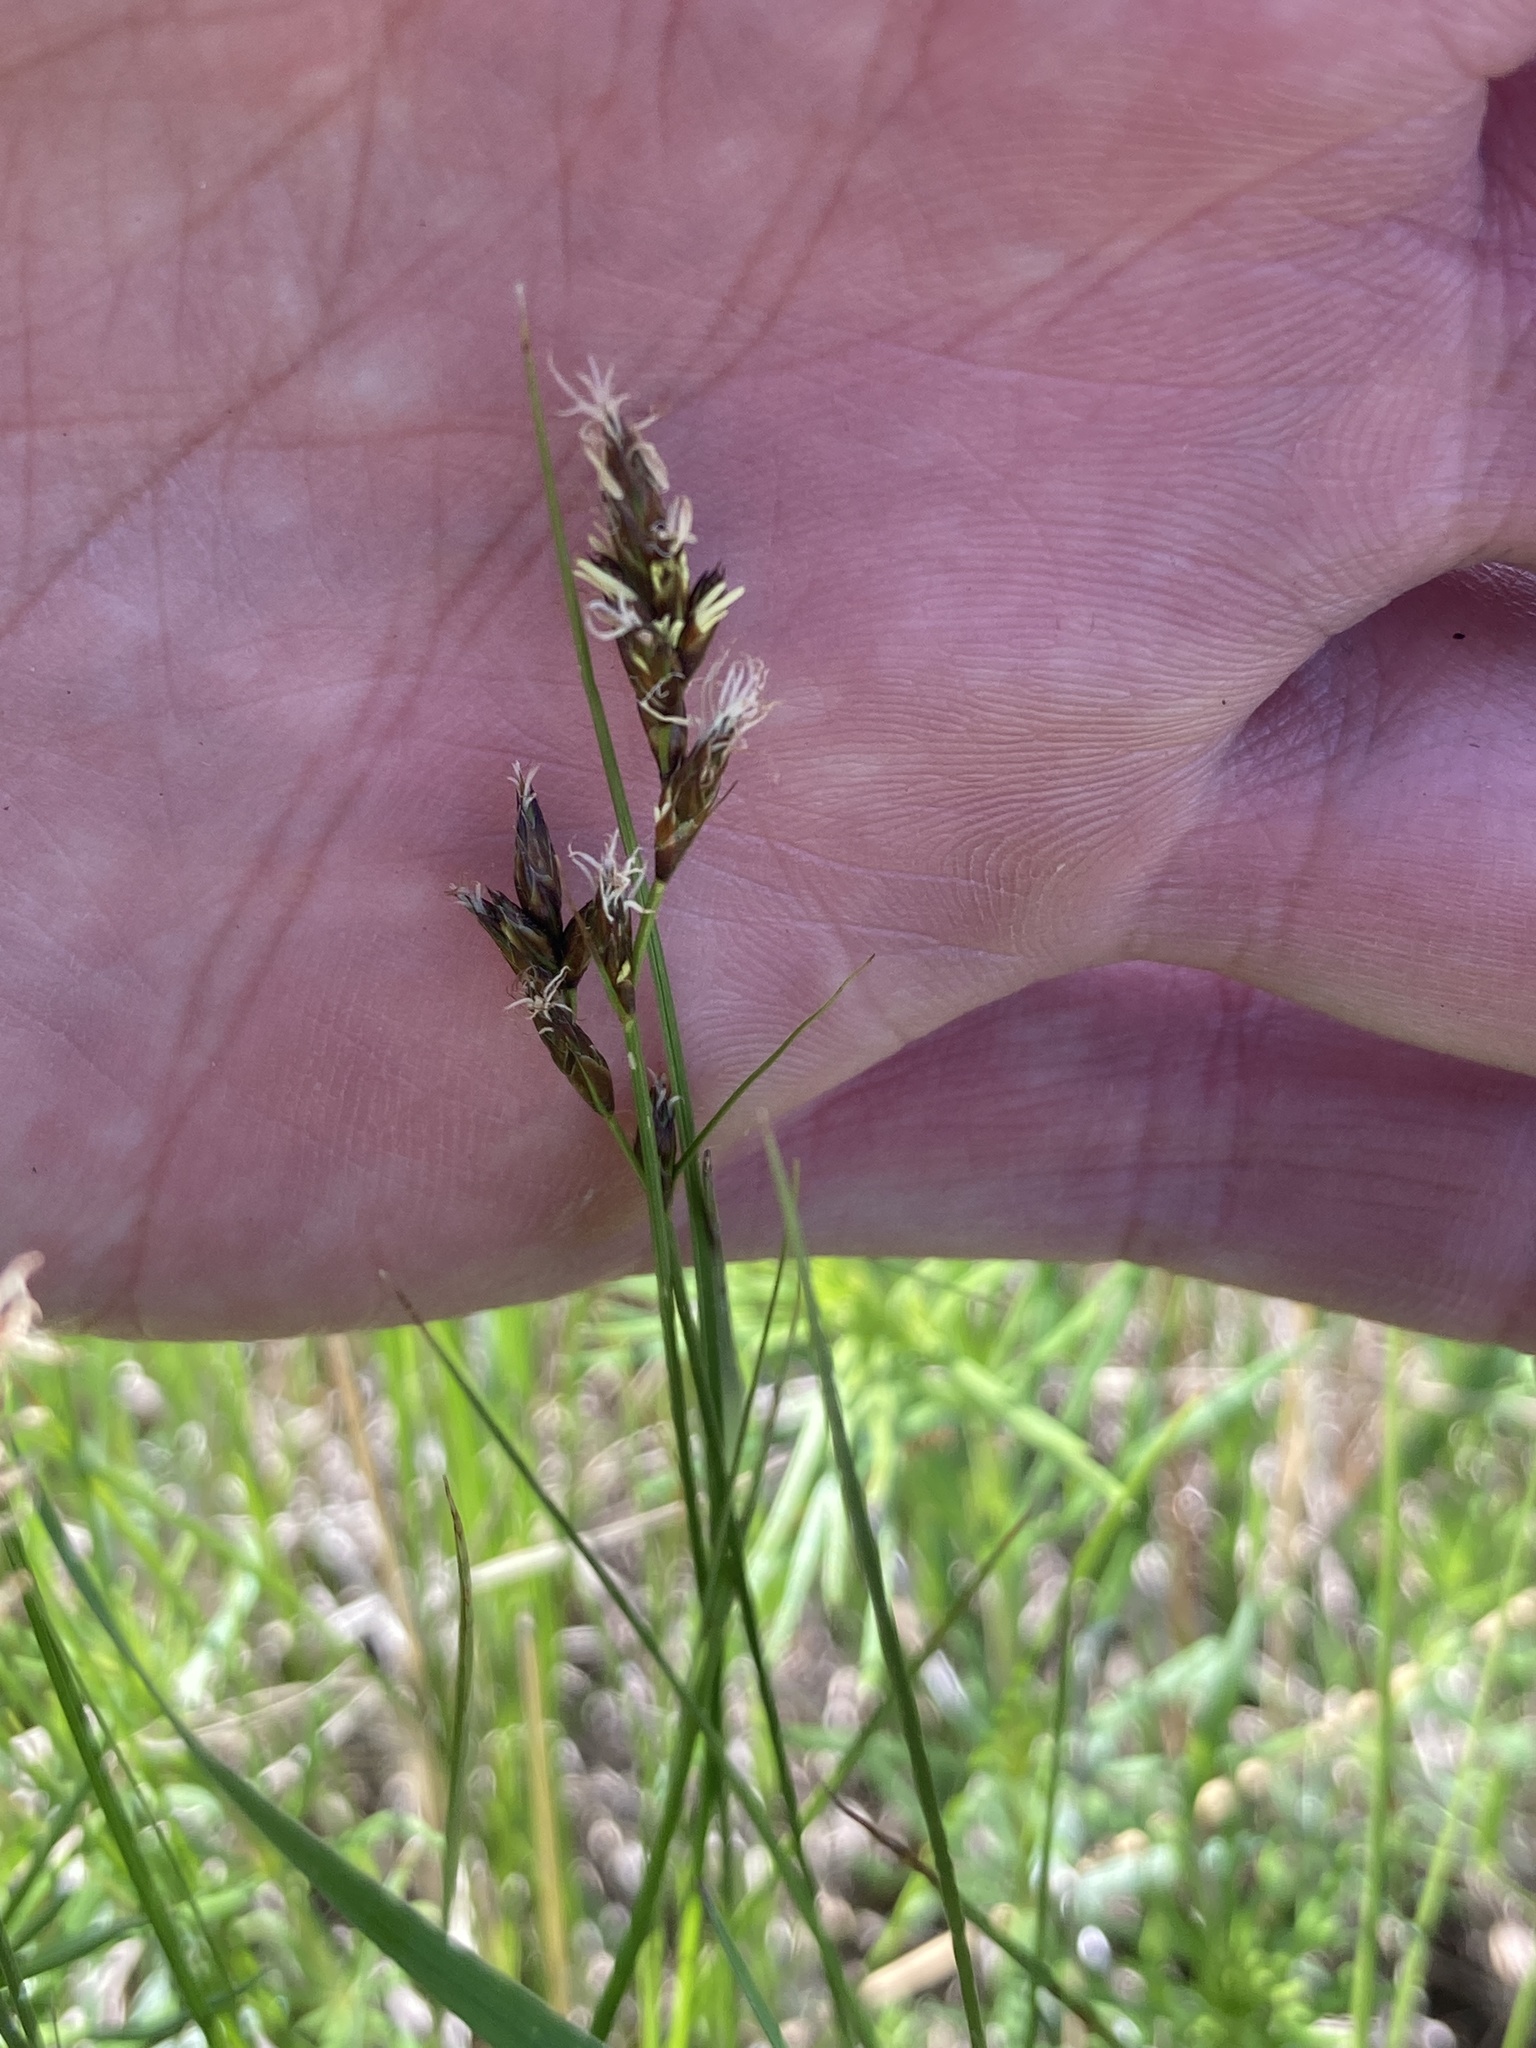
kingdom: Plantae
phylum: Tracheophyta
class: Liliopsida
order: Poales
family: Cyperaceae
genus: Carex
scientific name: Carex praecox
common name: Early sedge
